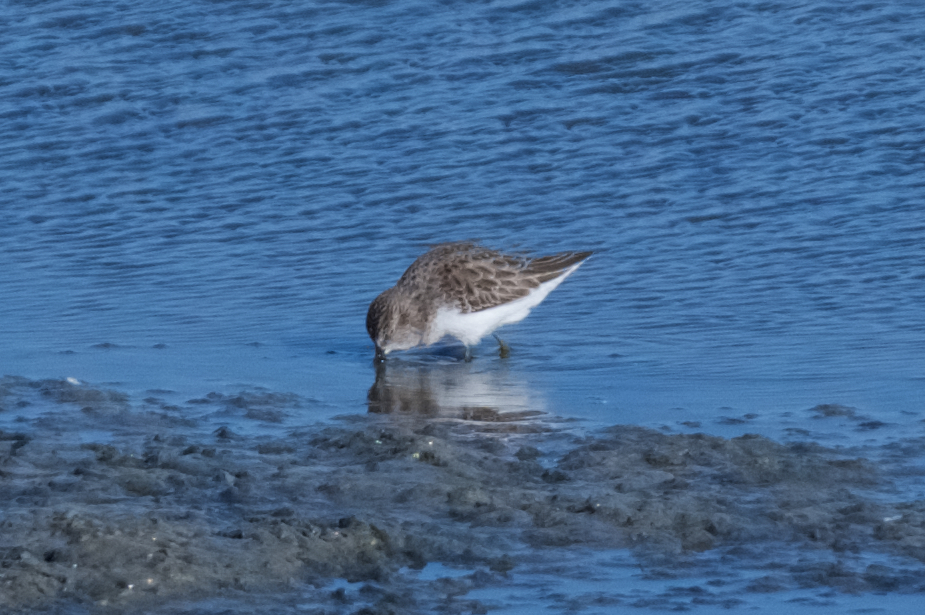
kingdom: Animalia
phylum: Chordata
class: Aves
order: Charadriiformes
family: Scolopacidae
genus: Calidris
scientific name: Calidris minutilla
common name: Least sandpiper
